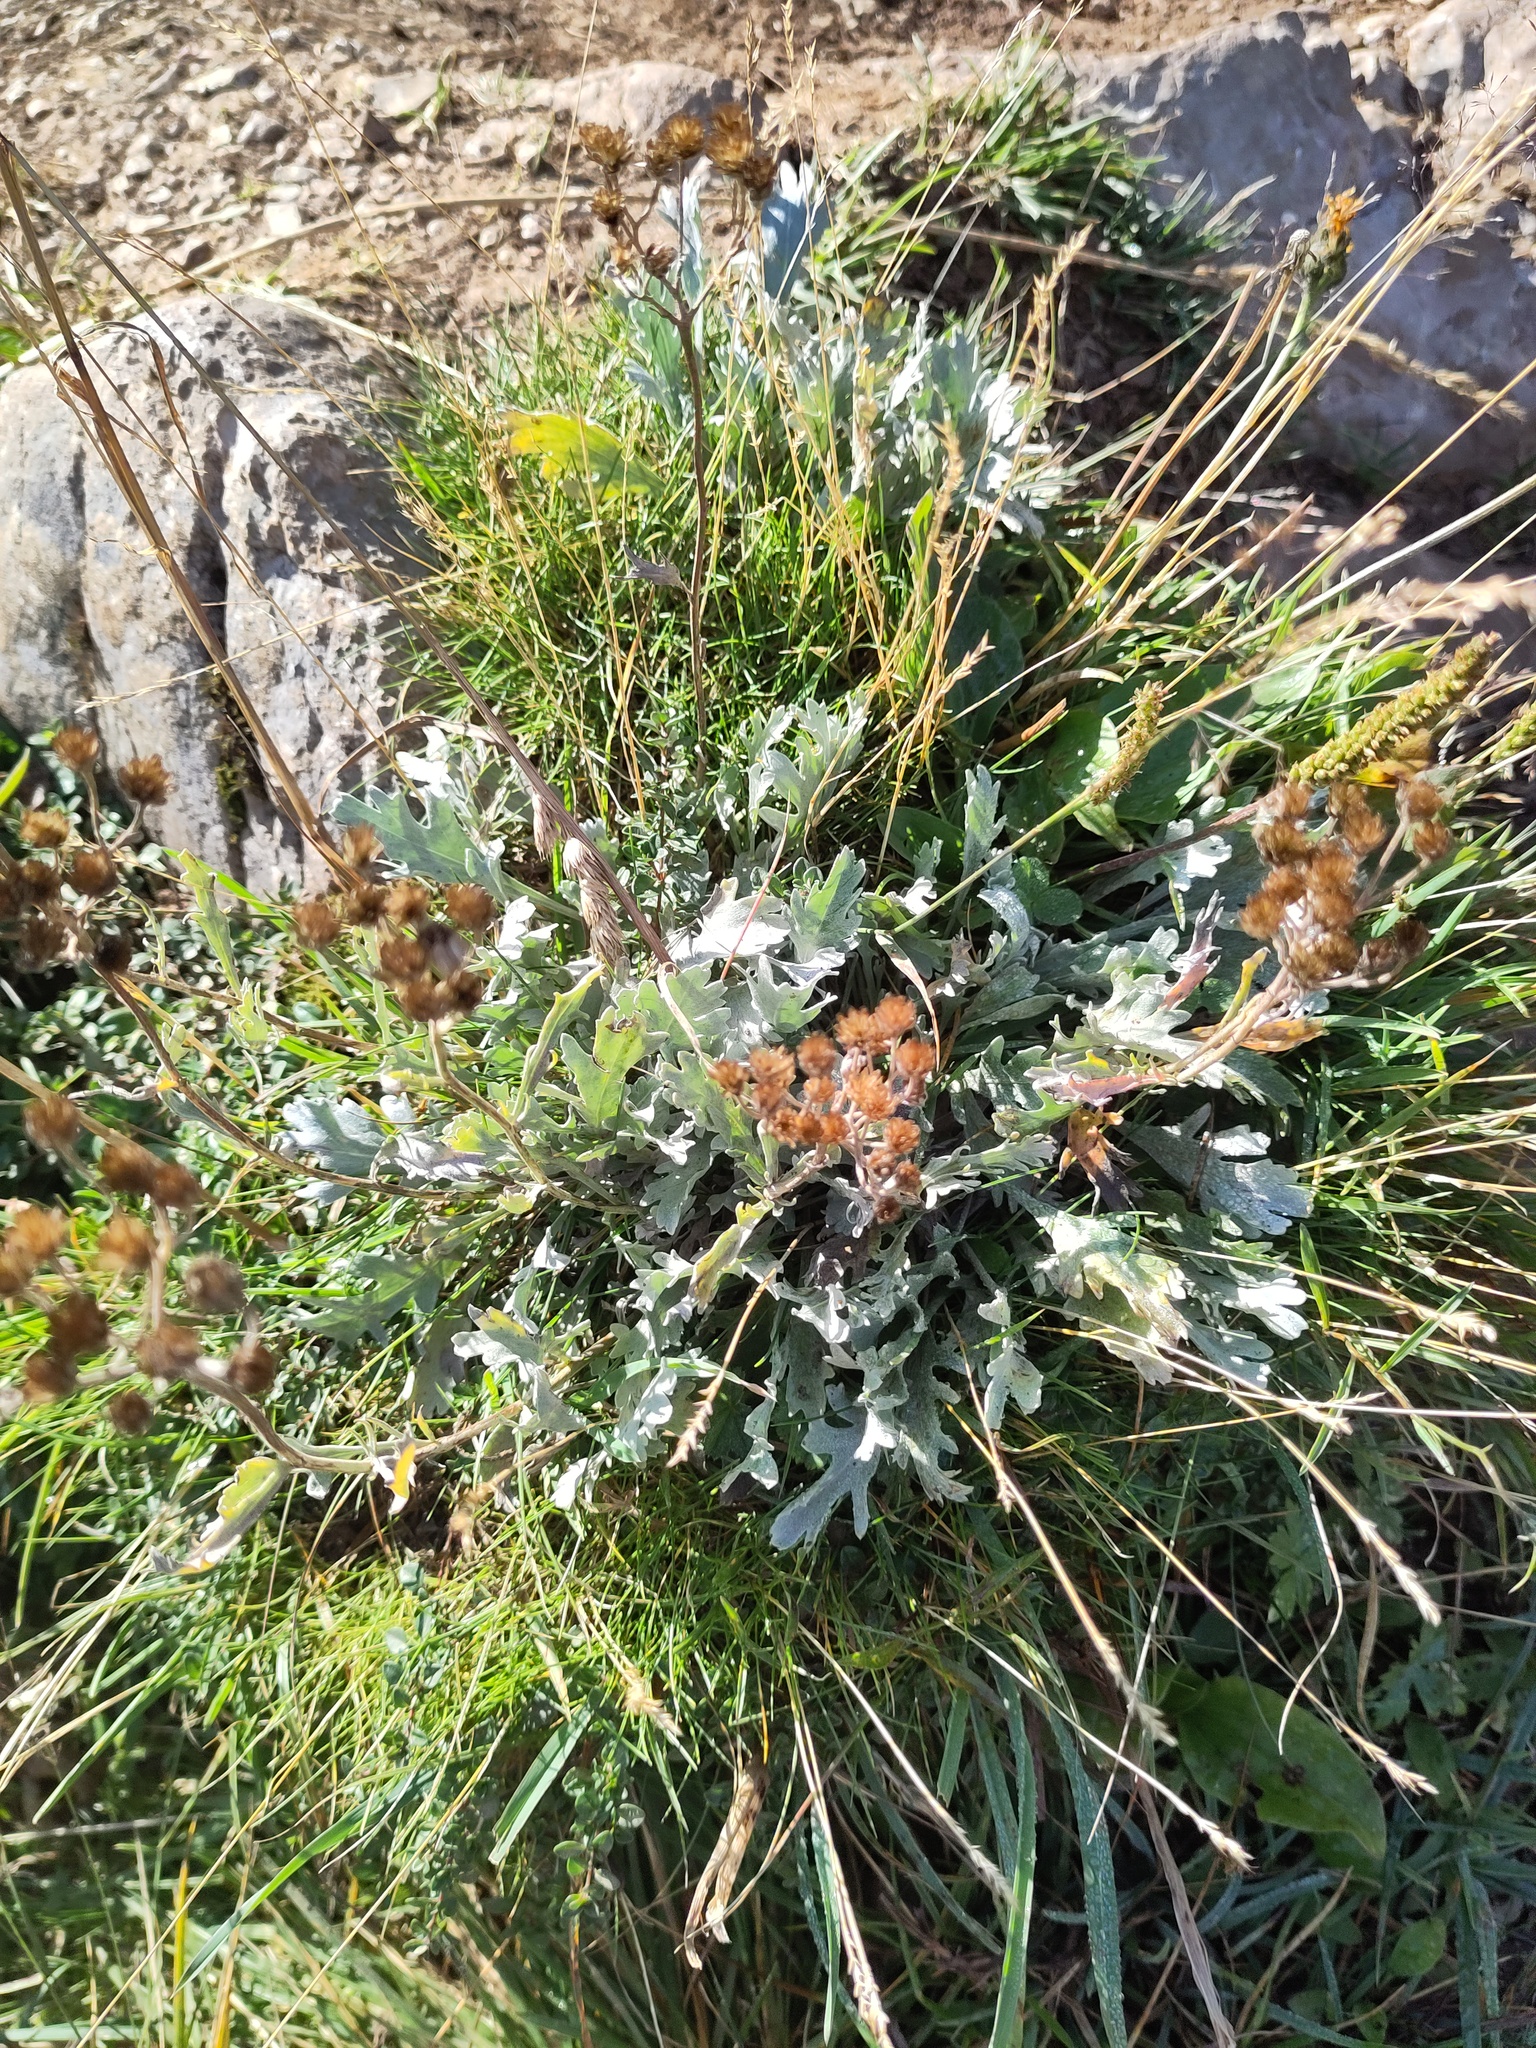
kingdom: Plantae
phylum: Tracheophyta
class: Magnoliopsida
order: Asterales
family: Asteraceae
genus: Achillea
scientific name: Achillea clavennae
